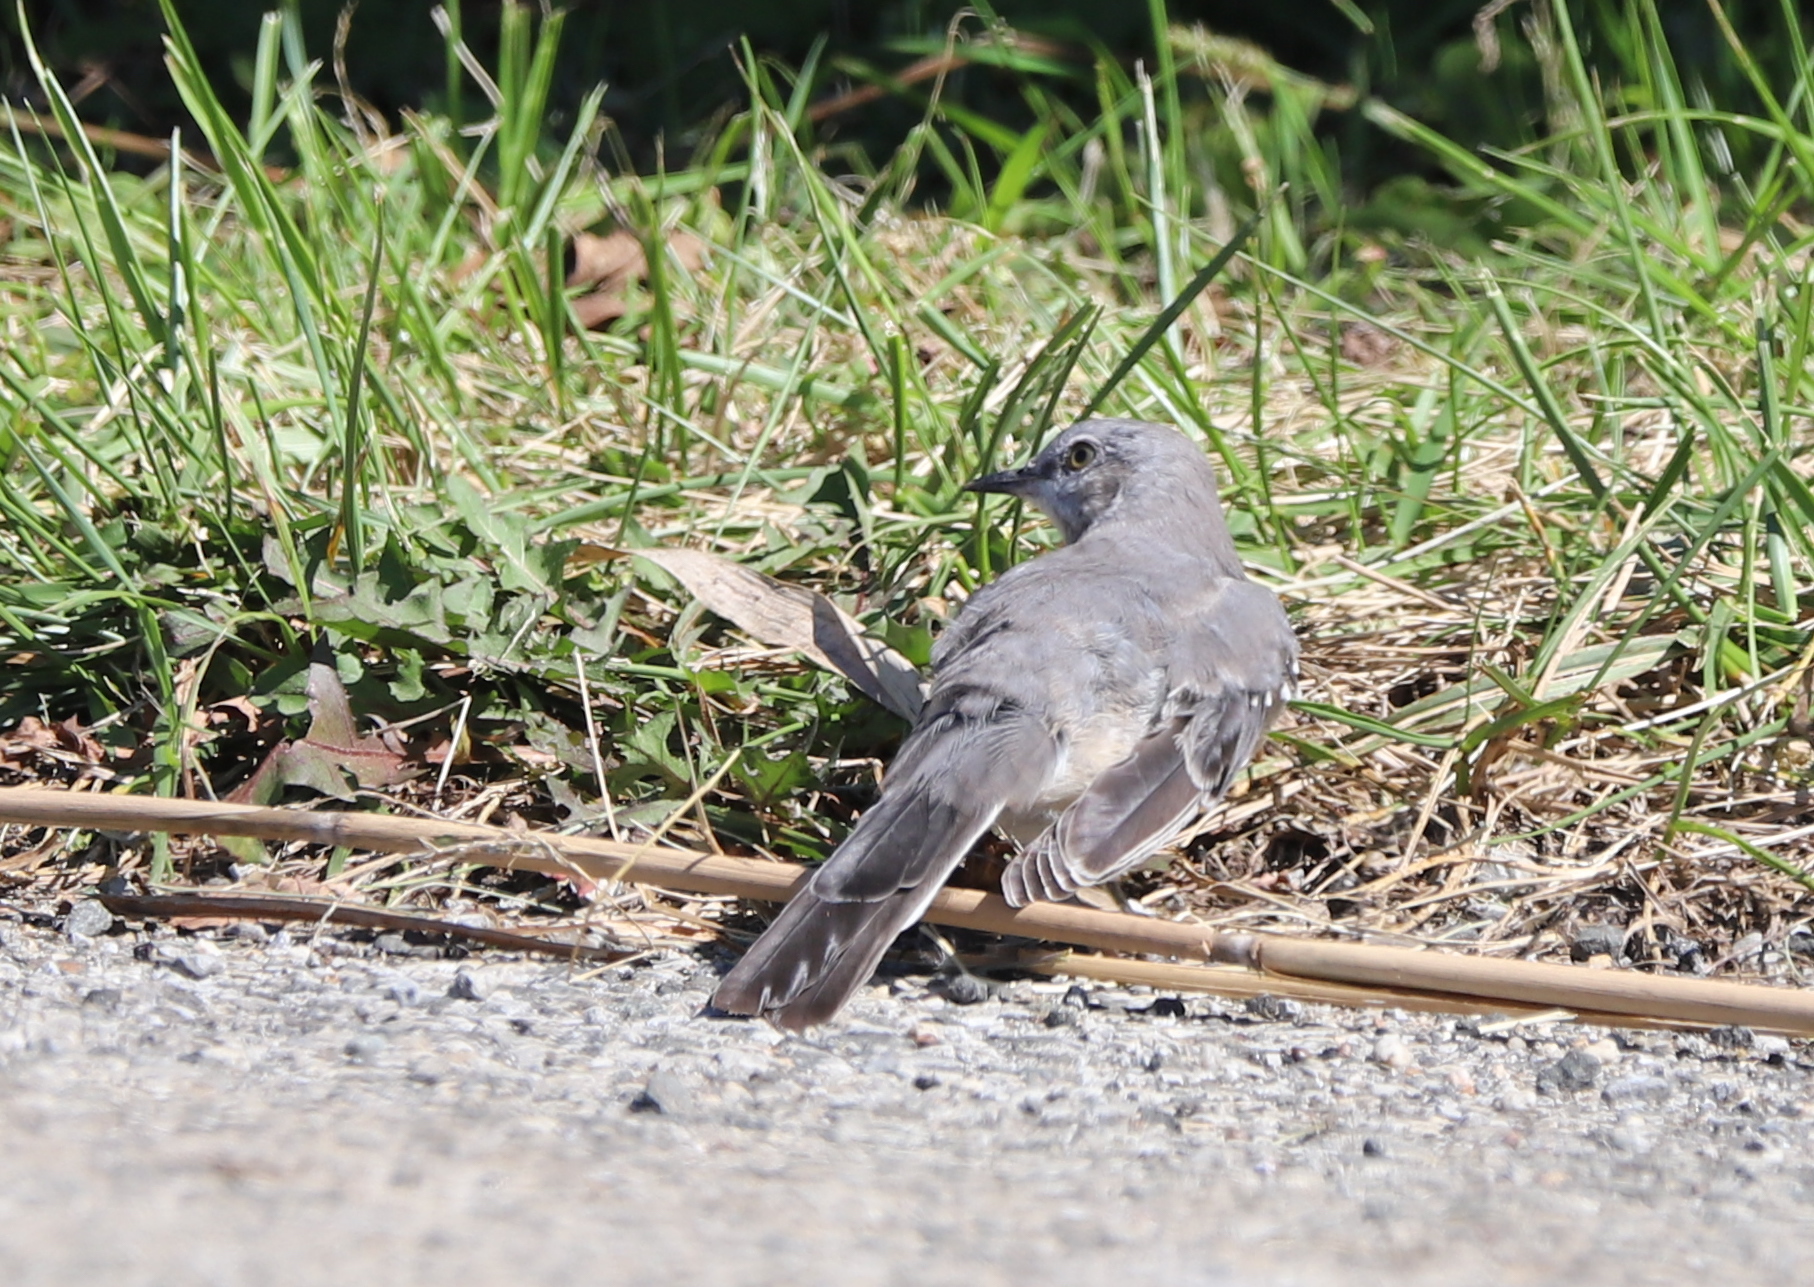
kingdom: Animalia
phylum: Chordata
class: Aves
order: Passeriformes
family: Mimidae
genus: Mimus
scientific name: Mimus polyglottos
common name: Northern mockingbird
